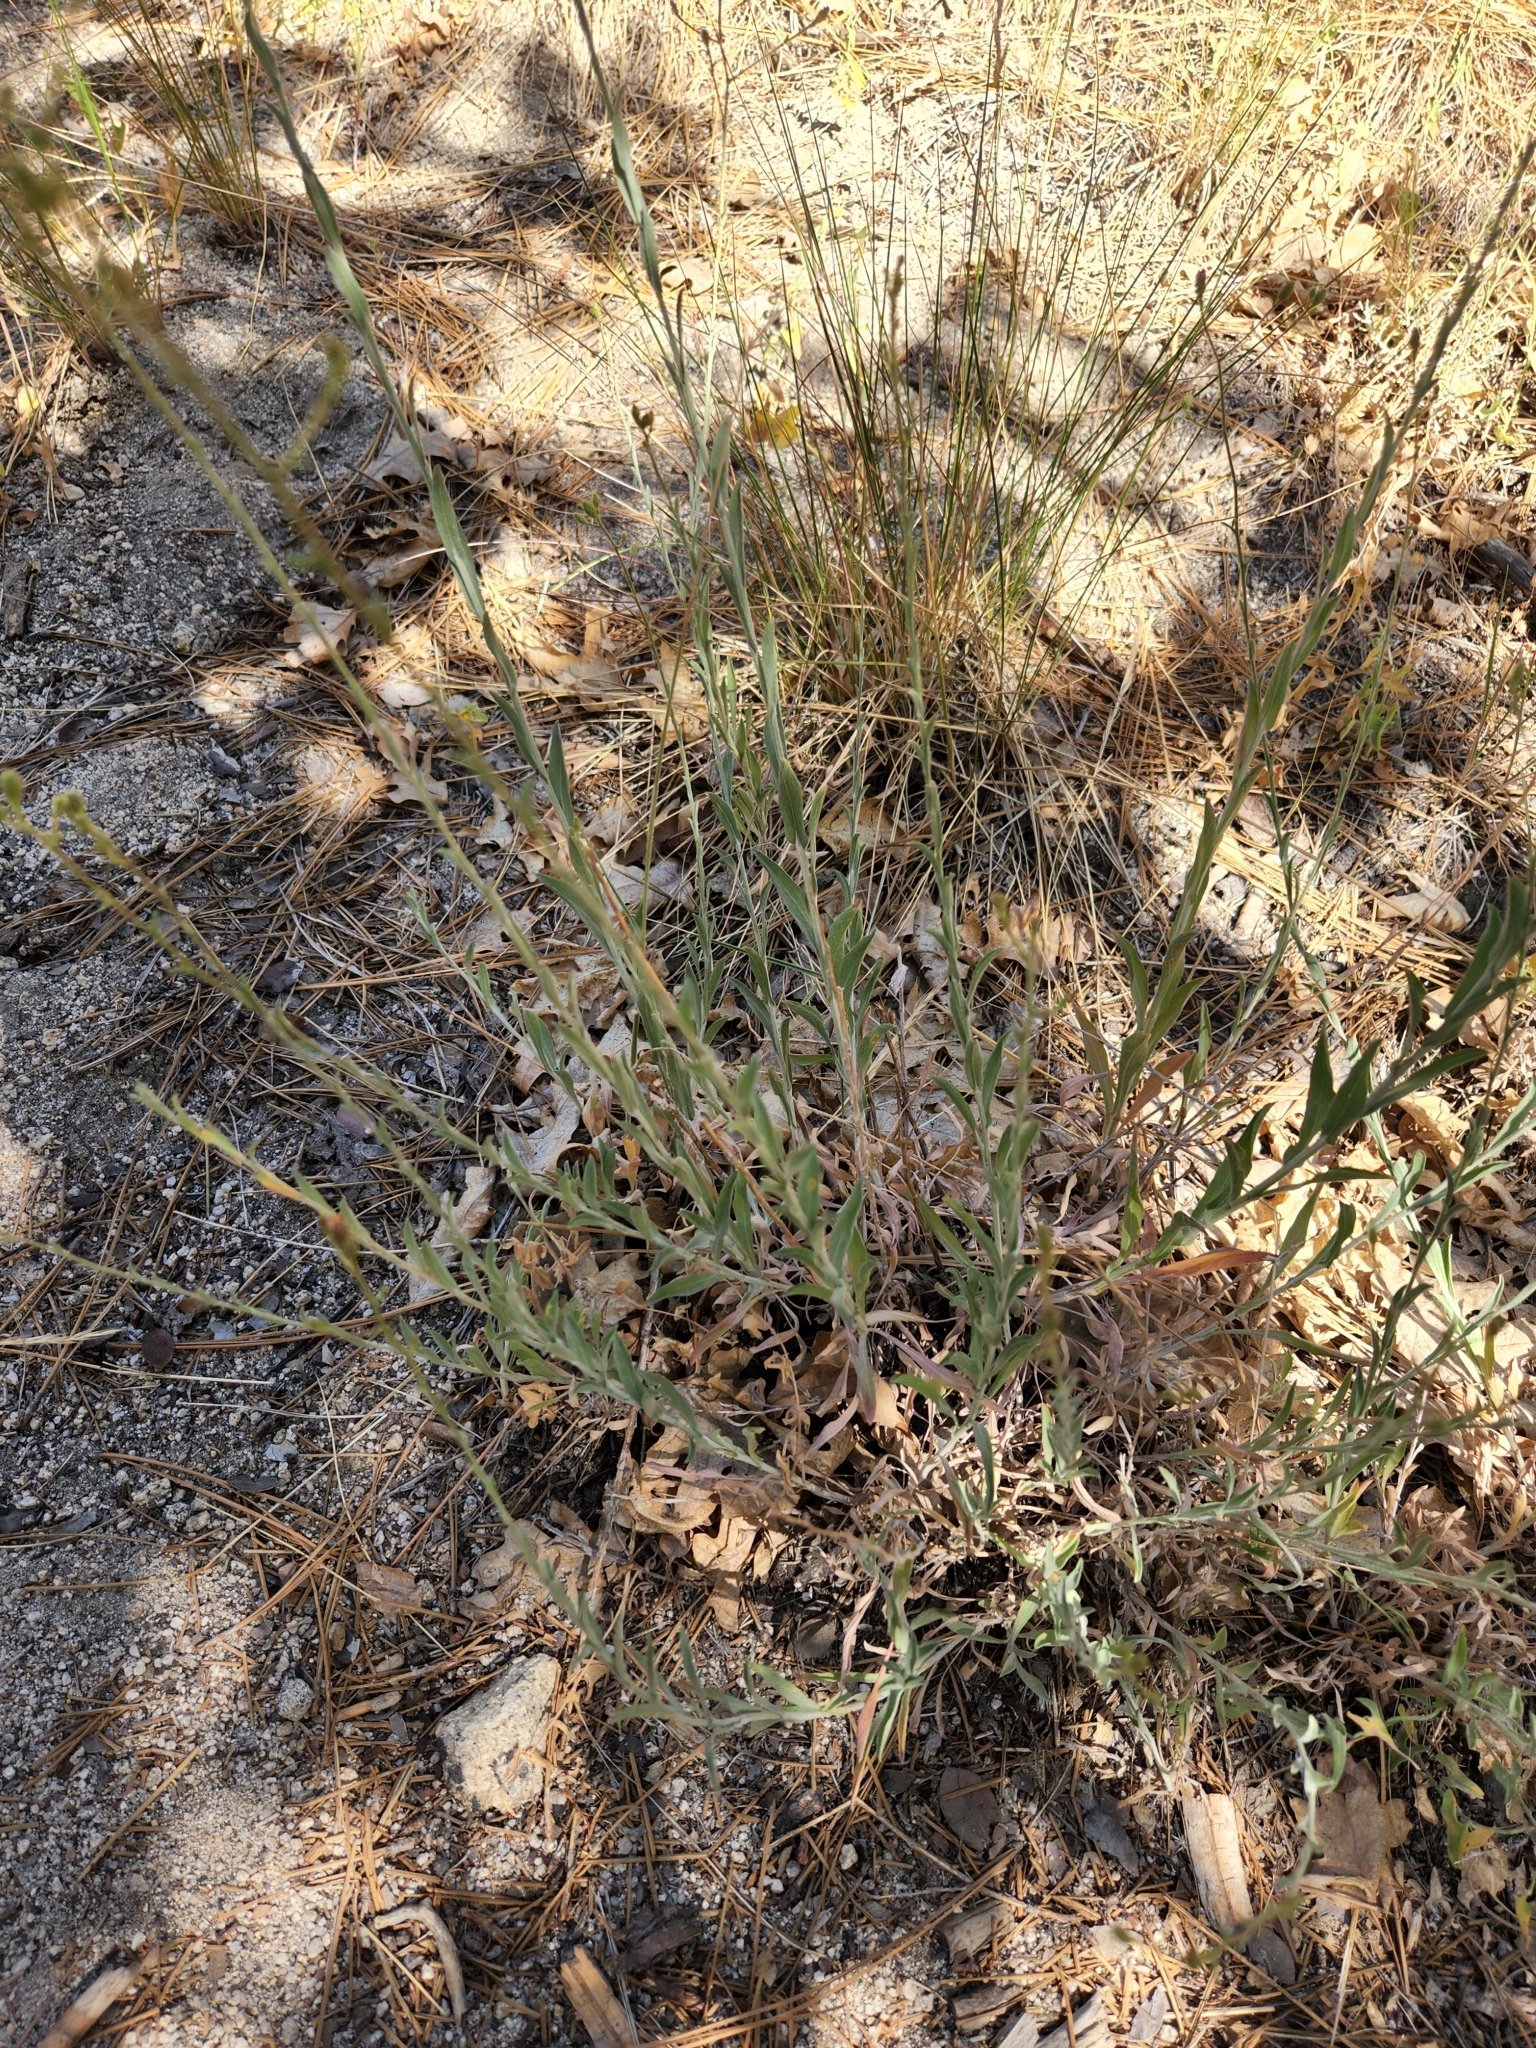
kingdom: Plantae
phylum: Tracheophyta
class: Magnoliopsida
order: Asterales
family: Asteraceae
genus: Corethrogyne
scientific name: Corethrogyne filaginifolia
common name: Sand-aster
